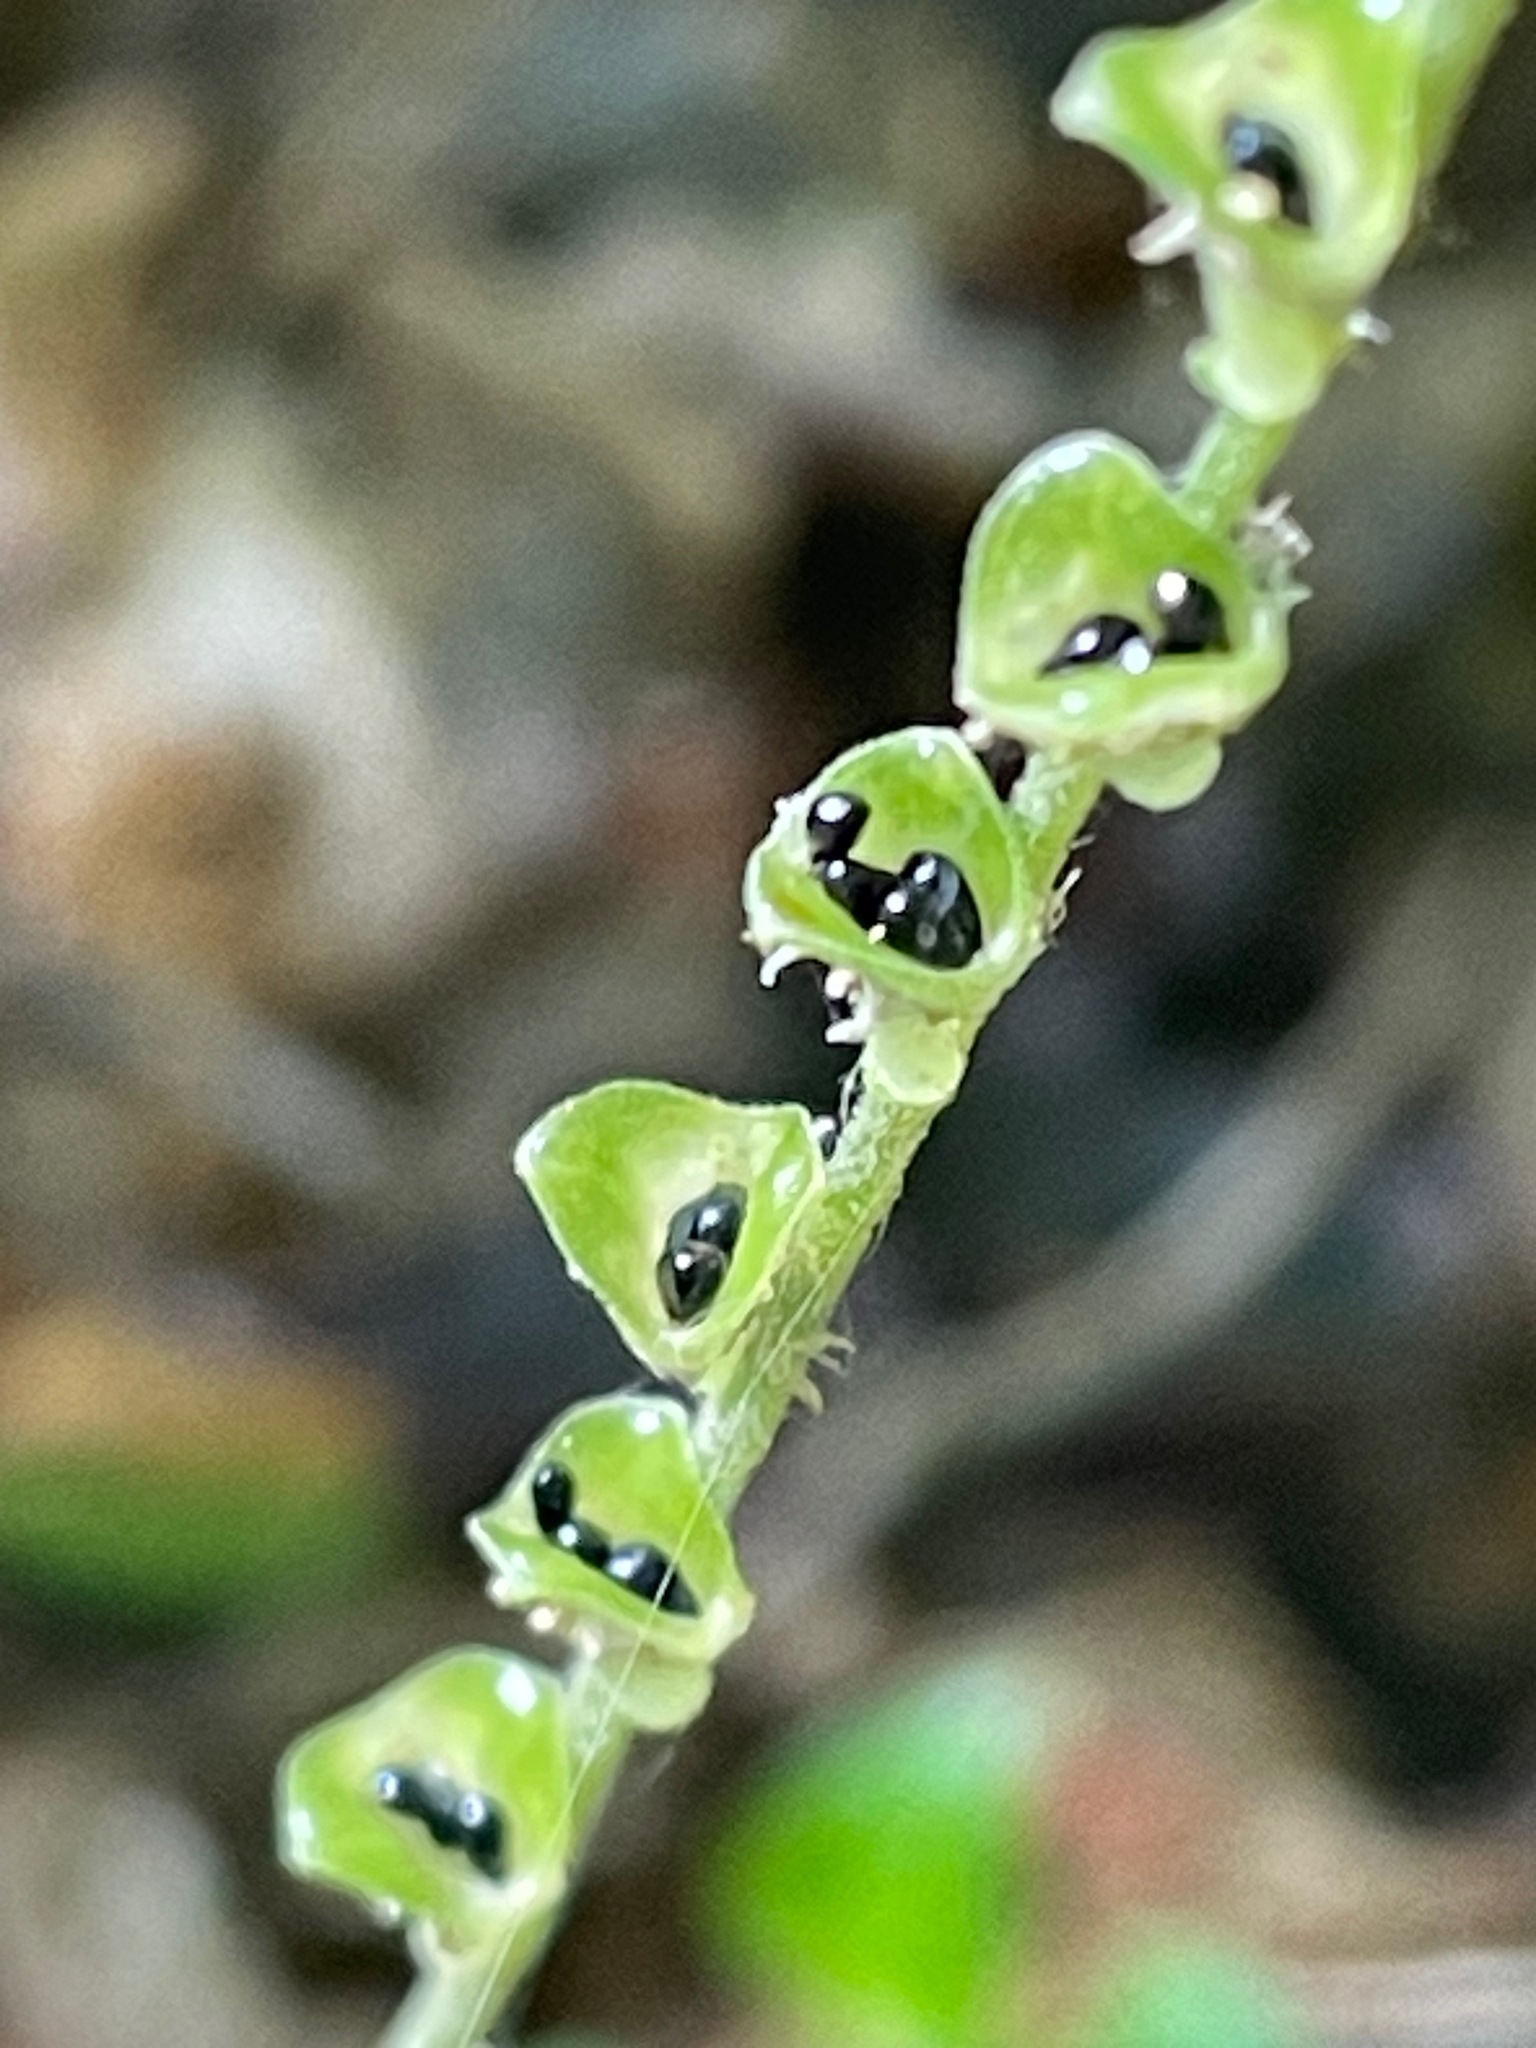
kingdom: Plantae
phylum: Tracheophyta
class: Magnoliopsida
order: Saxifragales
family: Saxifragaceae
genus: Mitella
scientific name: Mitella diphylla
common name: Coolwort
